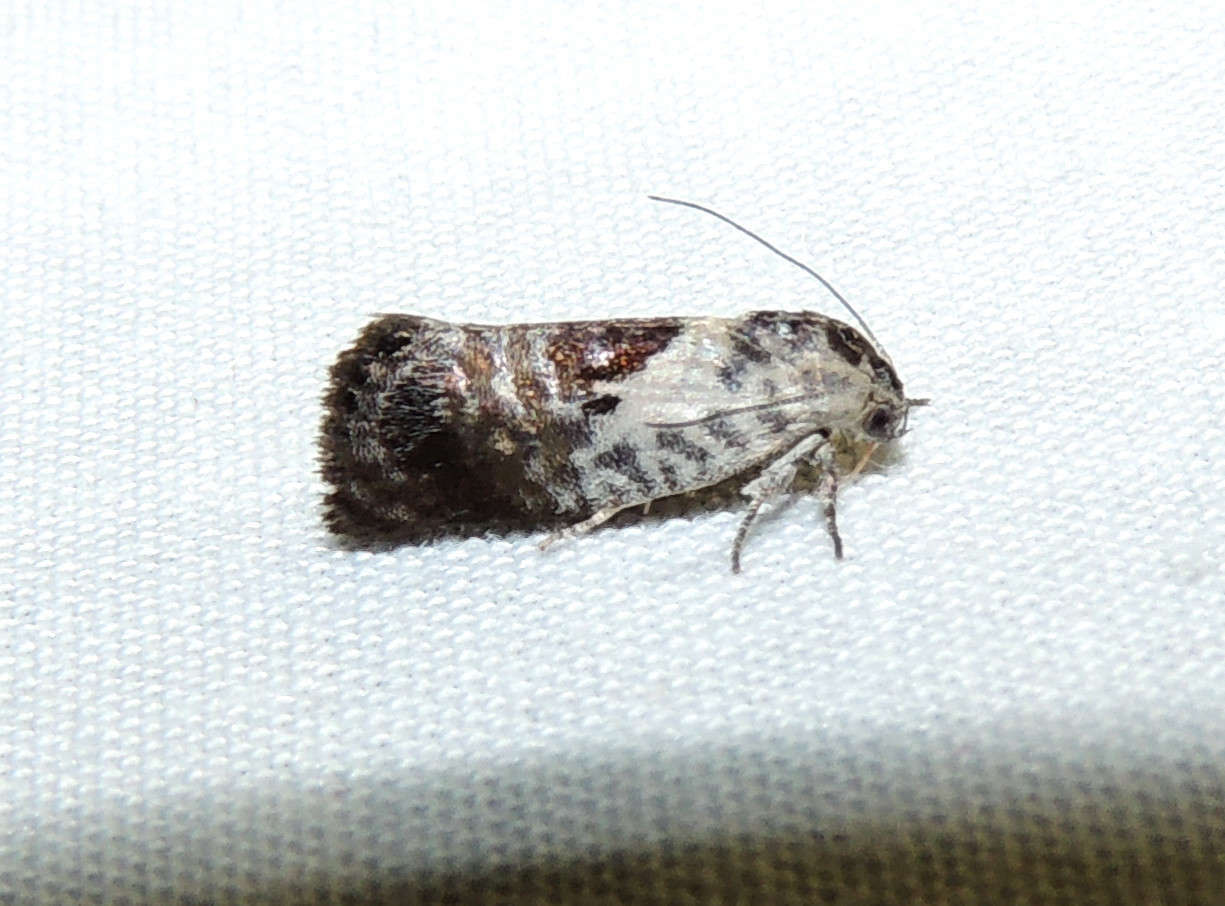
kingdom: Animalia
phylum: Arthropoda
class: Insecta
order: Lepidoptera
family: Depressariidae
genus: Eupselia
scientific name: Eupselia carpocapsella
